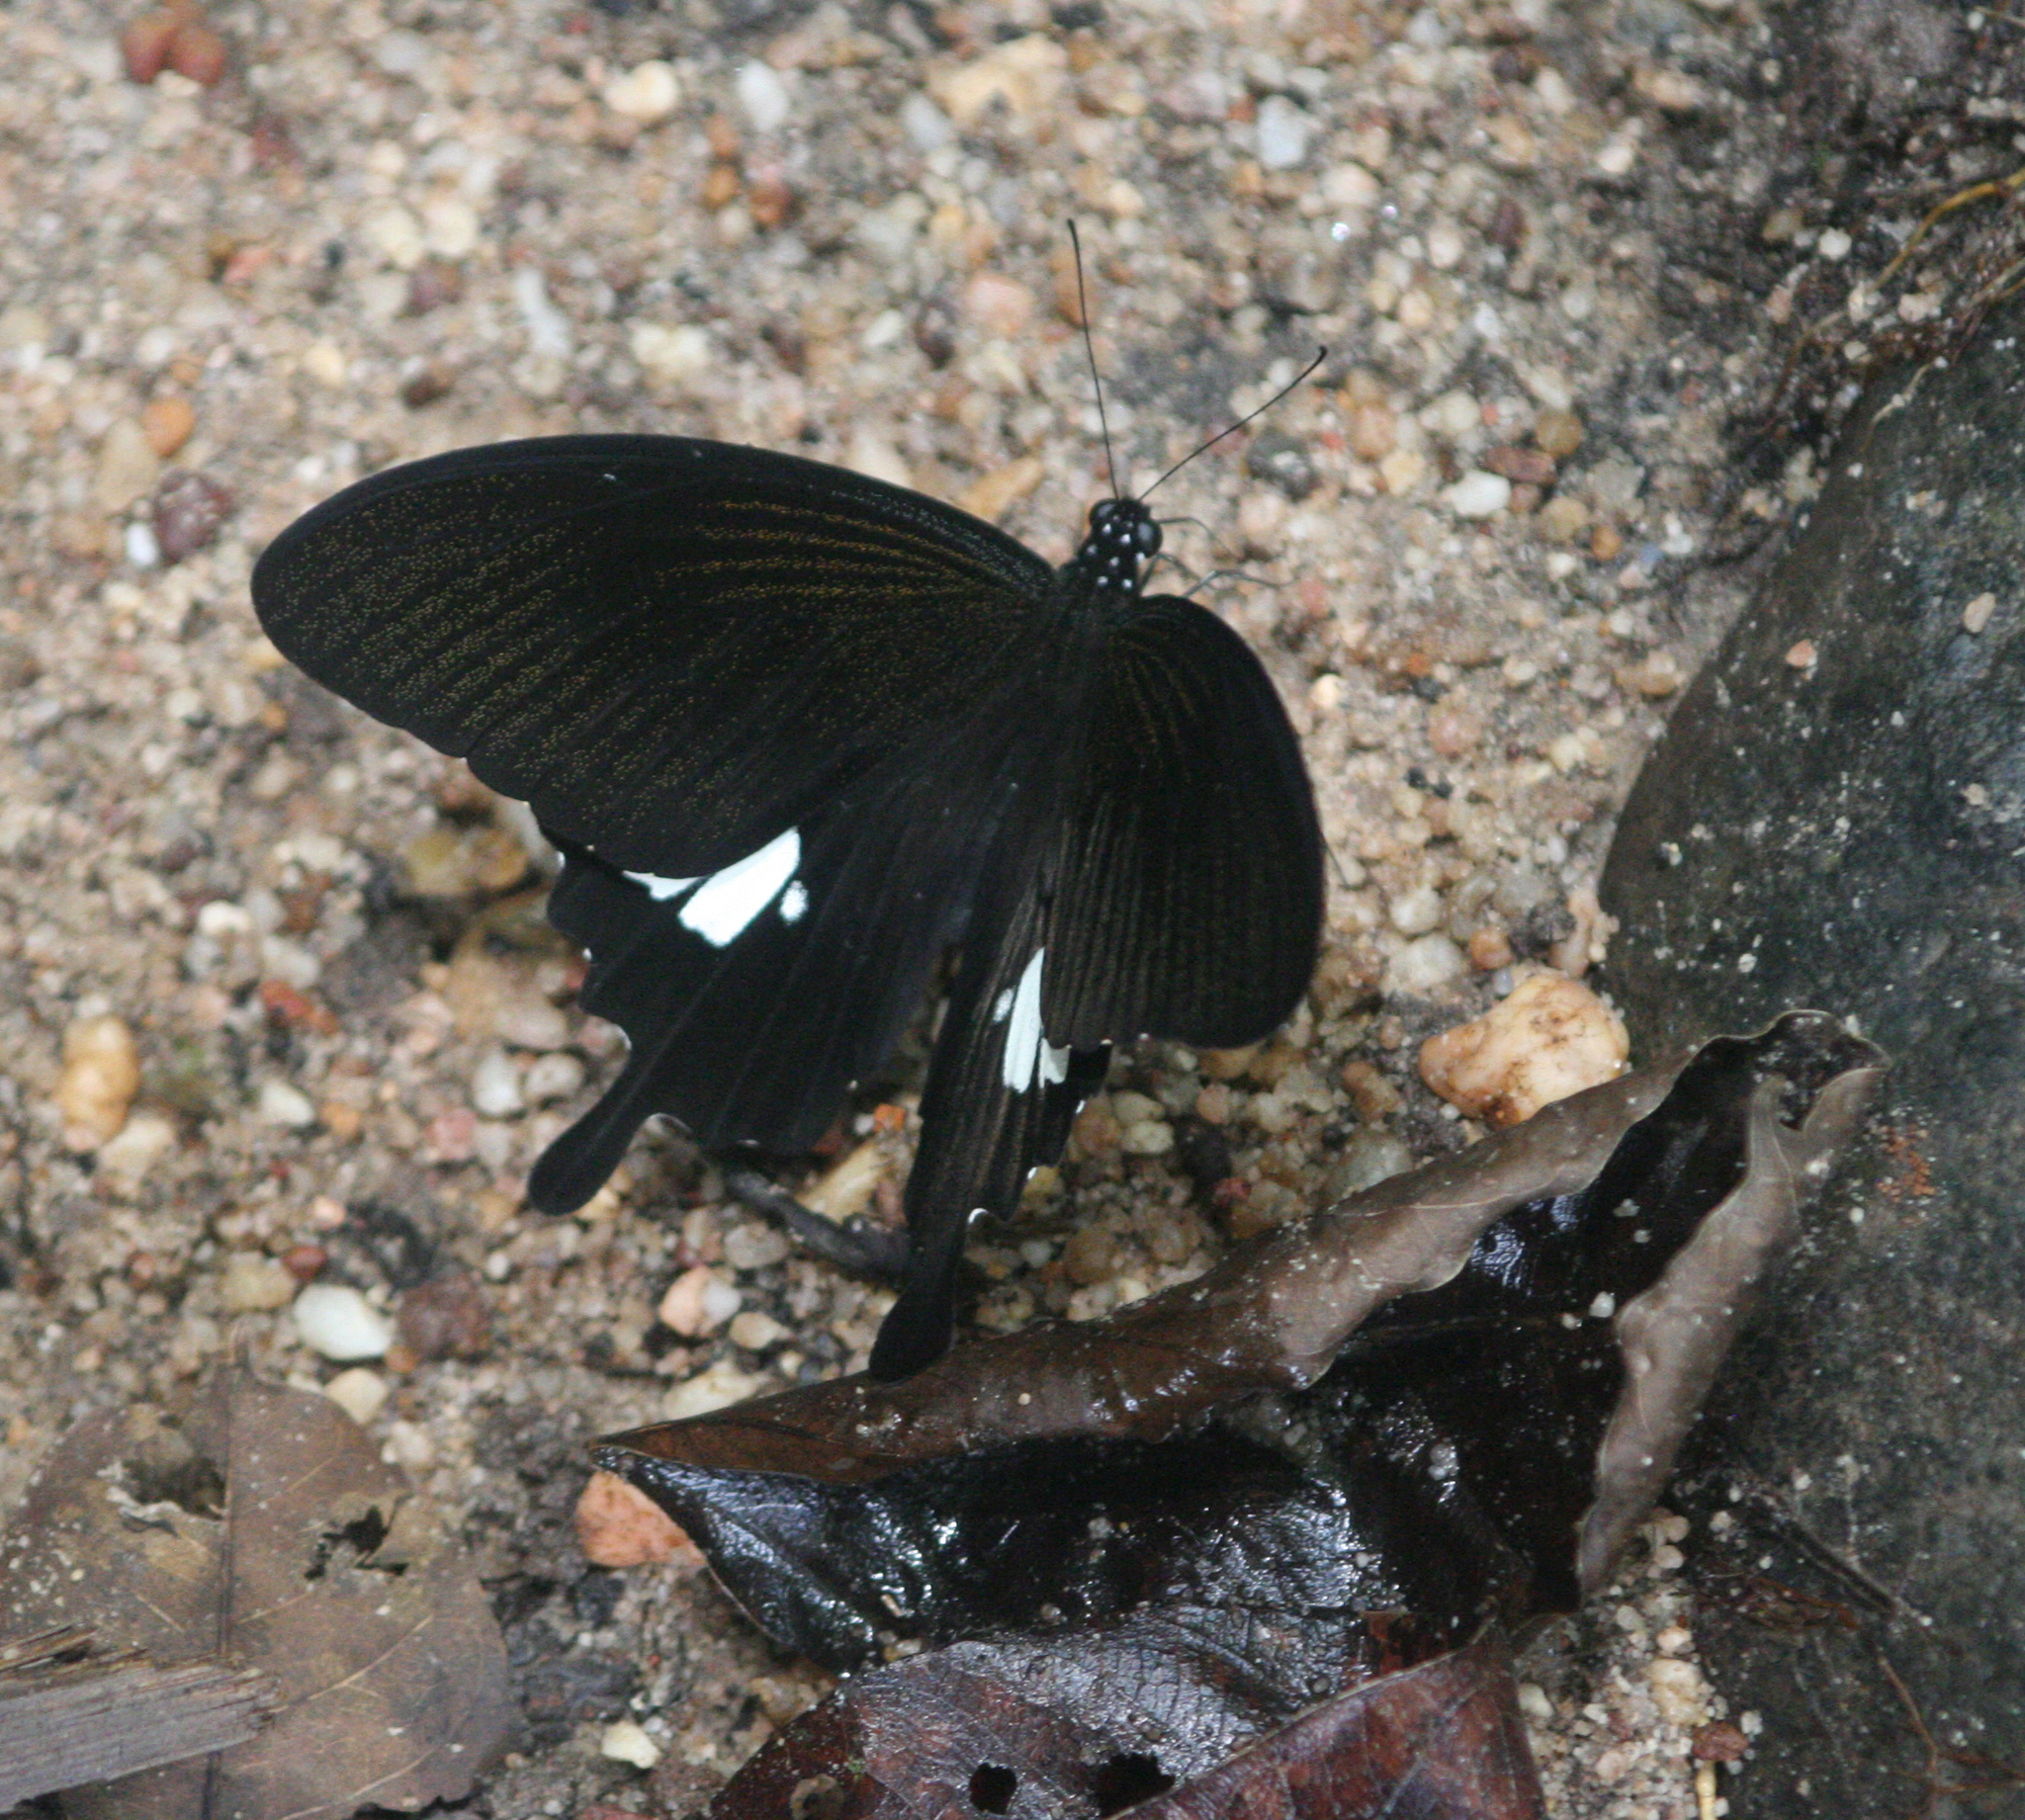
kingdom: Animalia
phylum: Arthropoda
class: Insecta
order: Lepidoptera
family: Papilionidae
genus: Atrophaneura
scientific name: Atrophaneura varuna
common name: Common batwing
